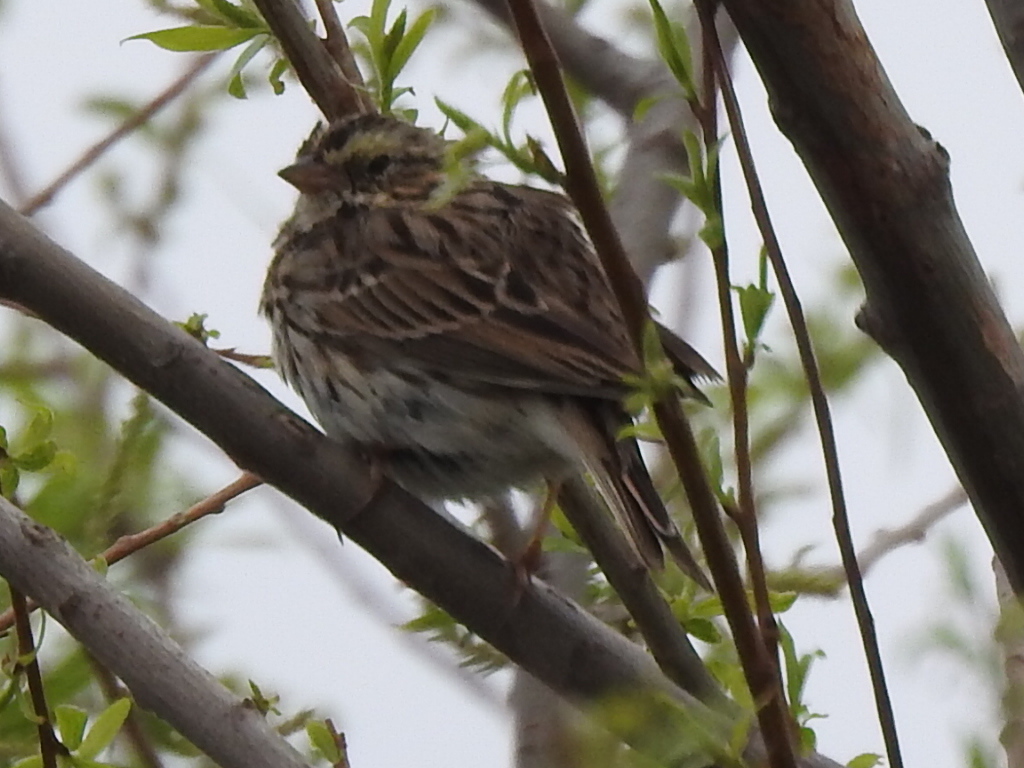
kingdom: Animalia
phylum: Chordata
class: Aves
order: Passeriformes
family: Passerellidae
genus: Passerculus
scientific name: Passerculus sandwichensis
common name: Savannah sparrow
